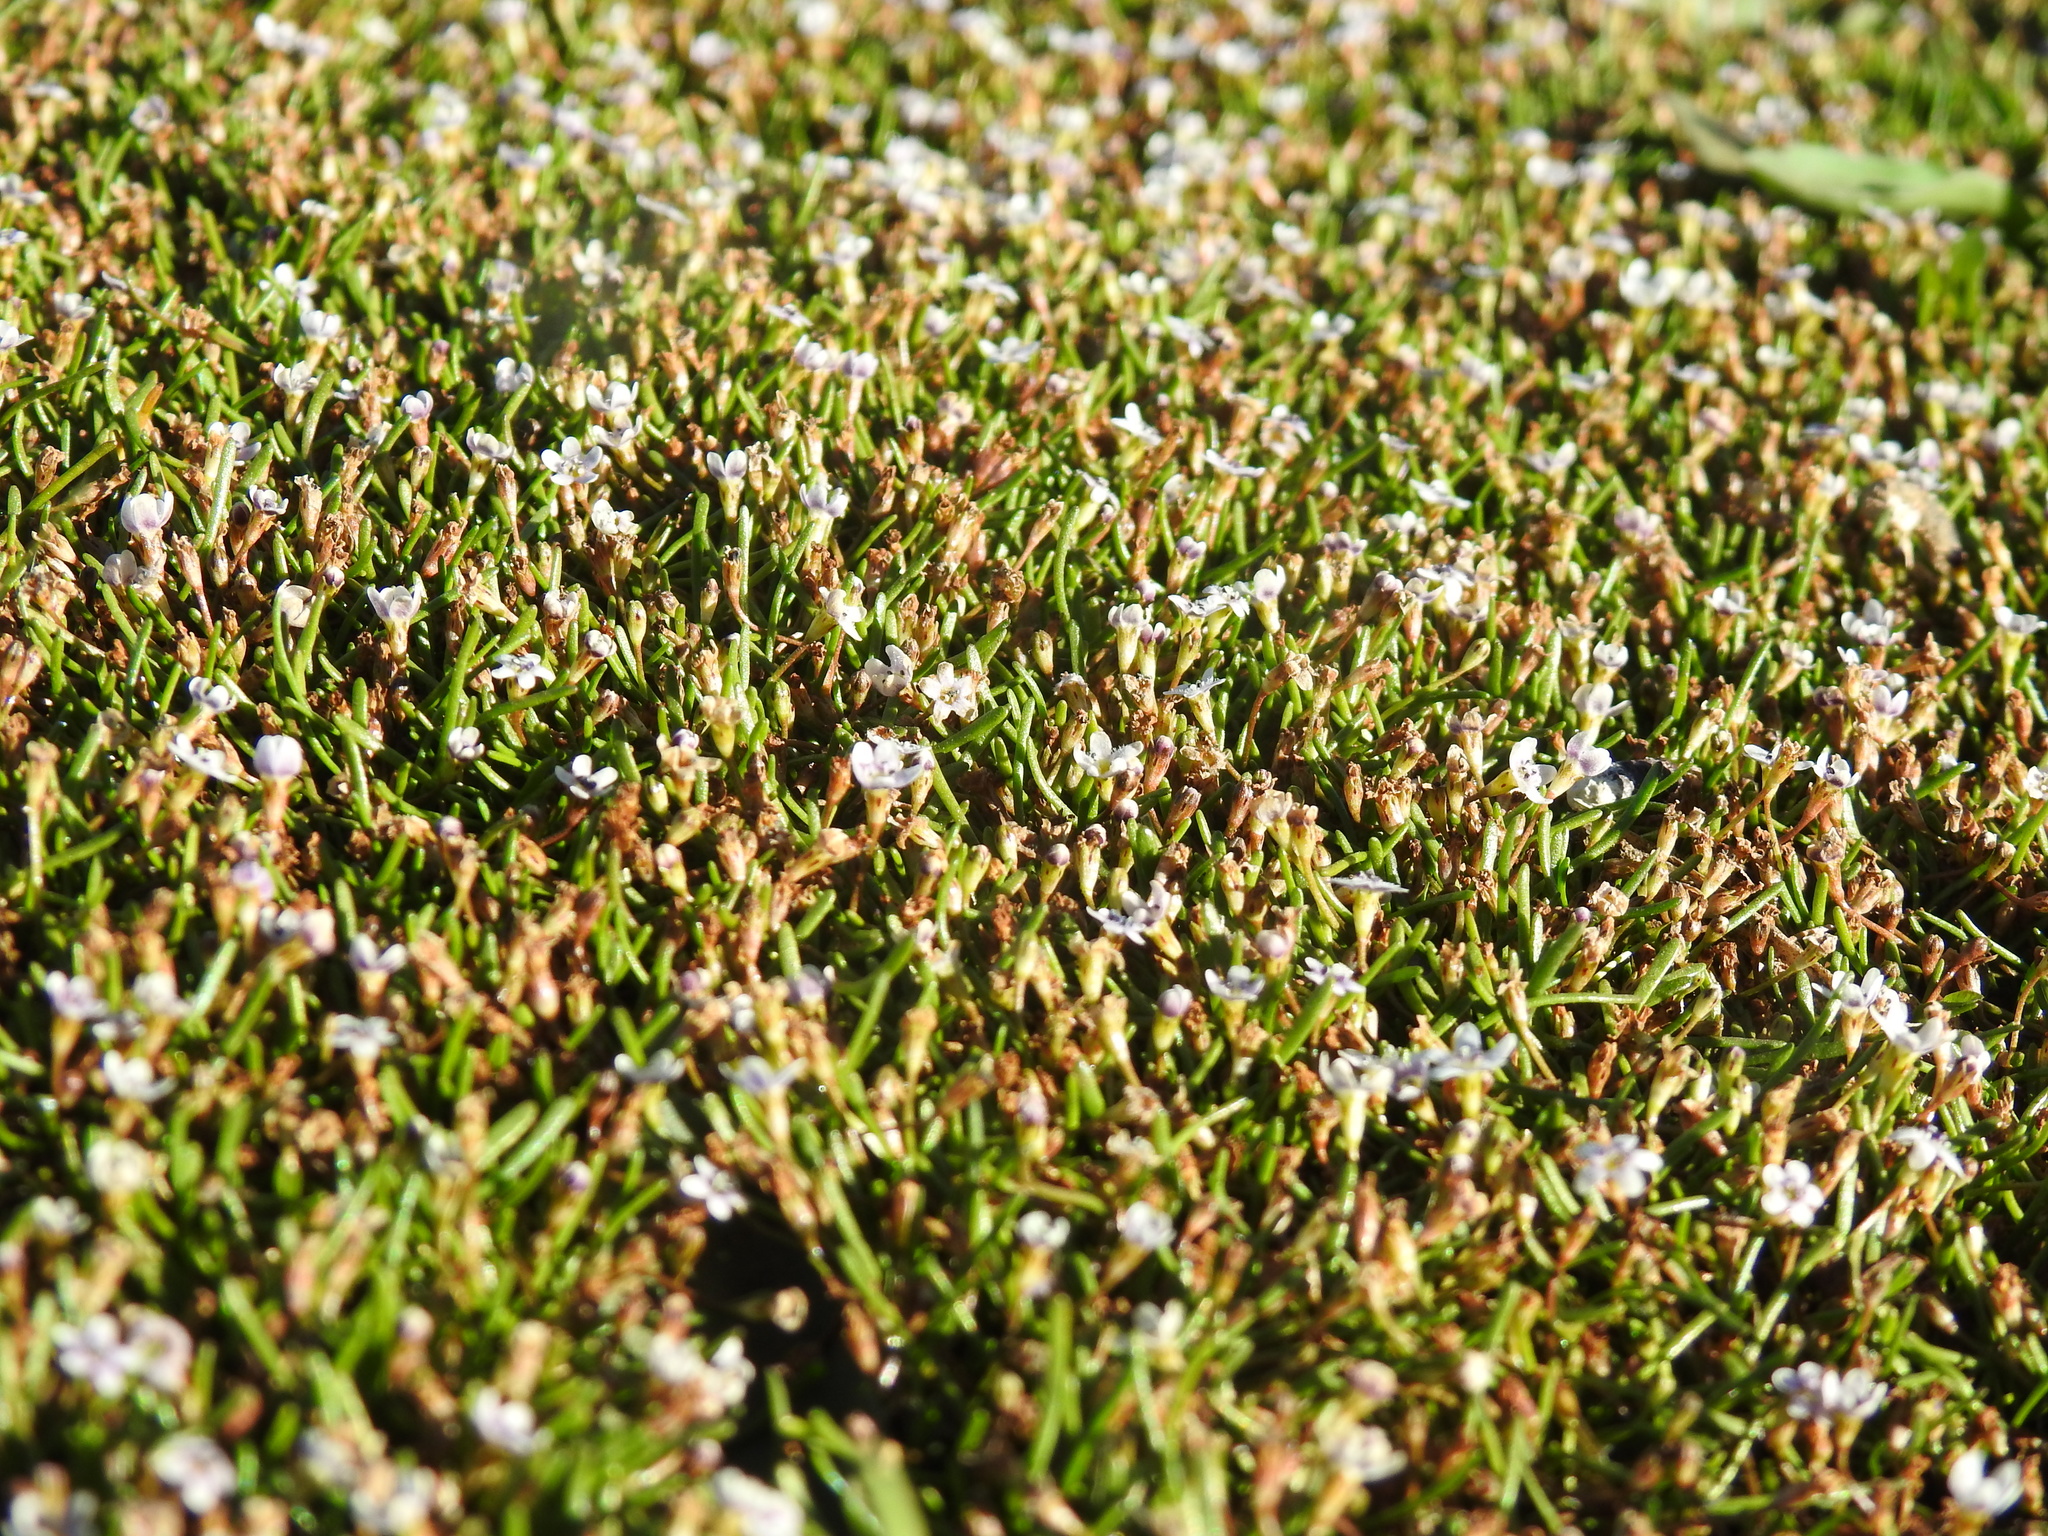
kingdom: Plantae
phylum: Tracheophyta
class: Magnoliopsida
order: Lamiales
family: Scrophulariaceae
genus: Limosella
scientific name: Limosella longiflora
